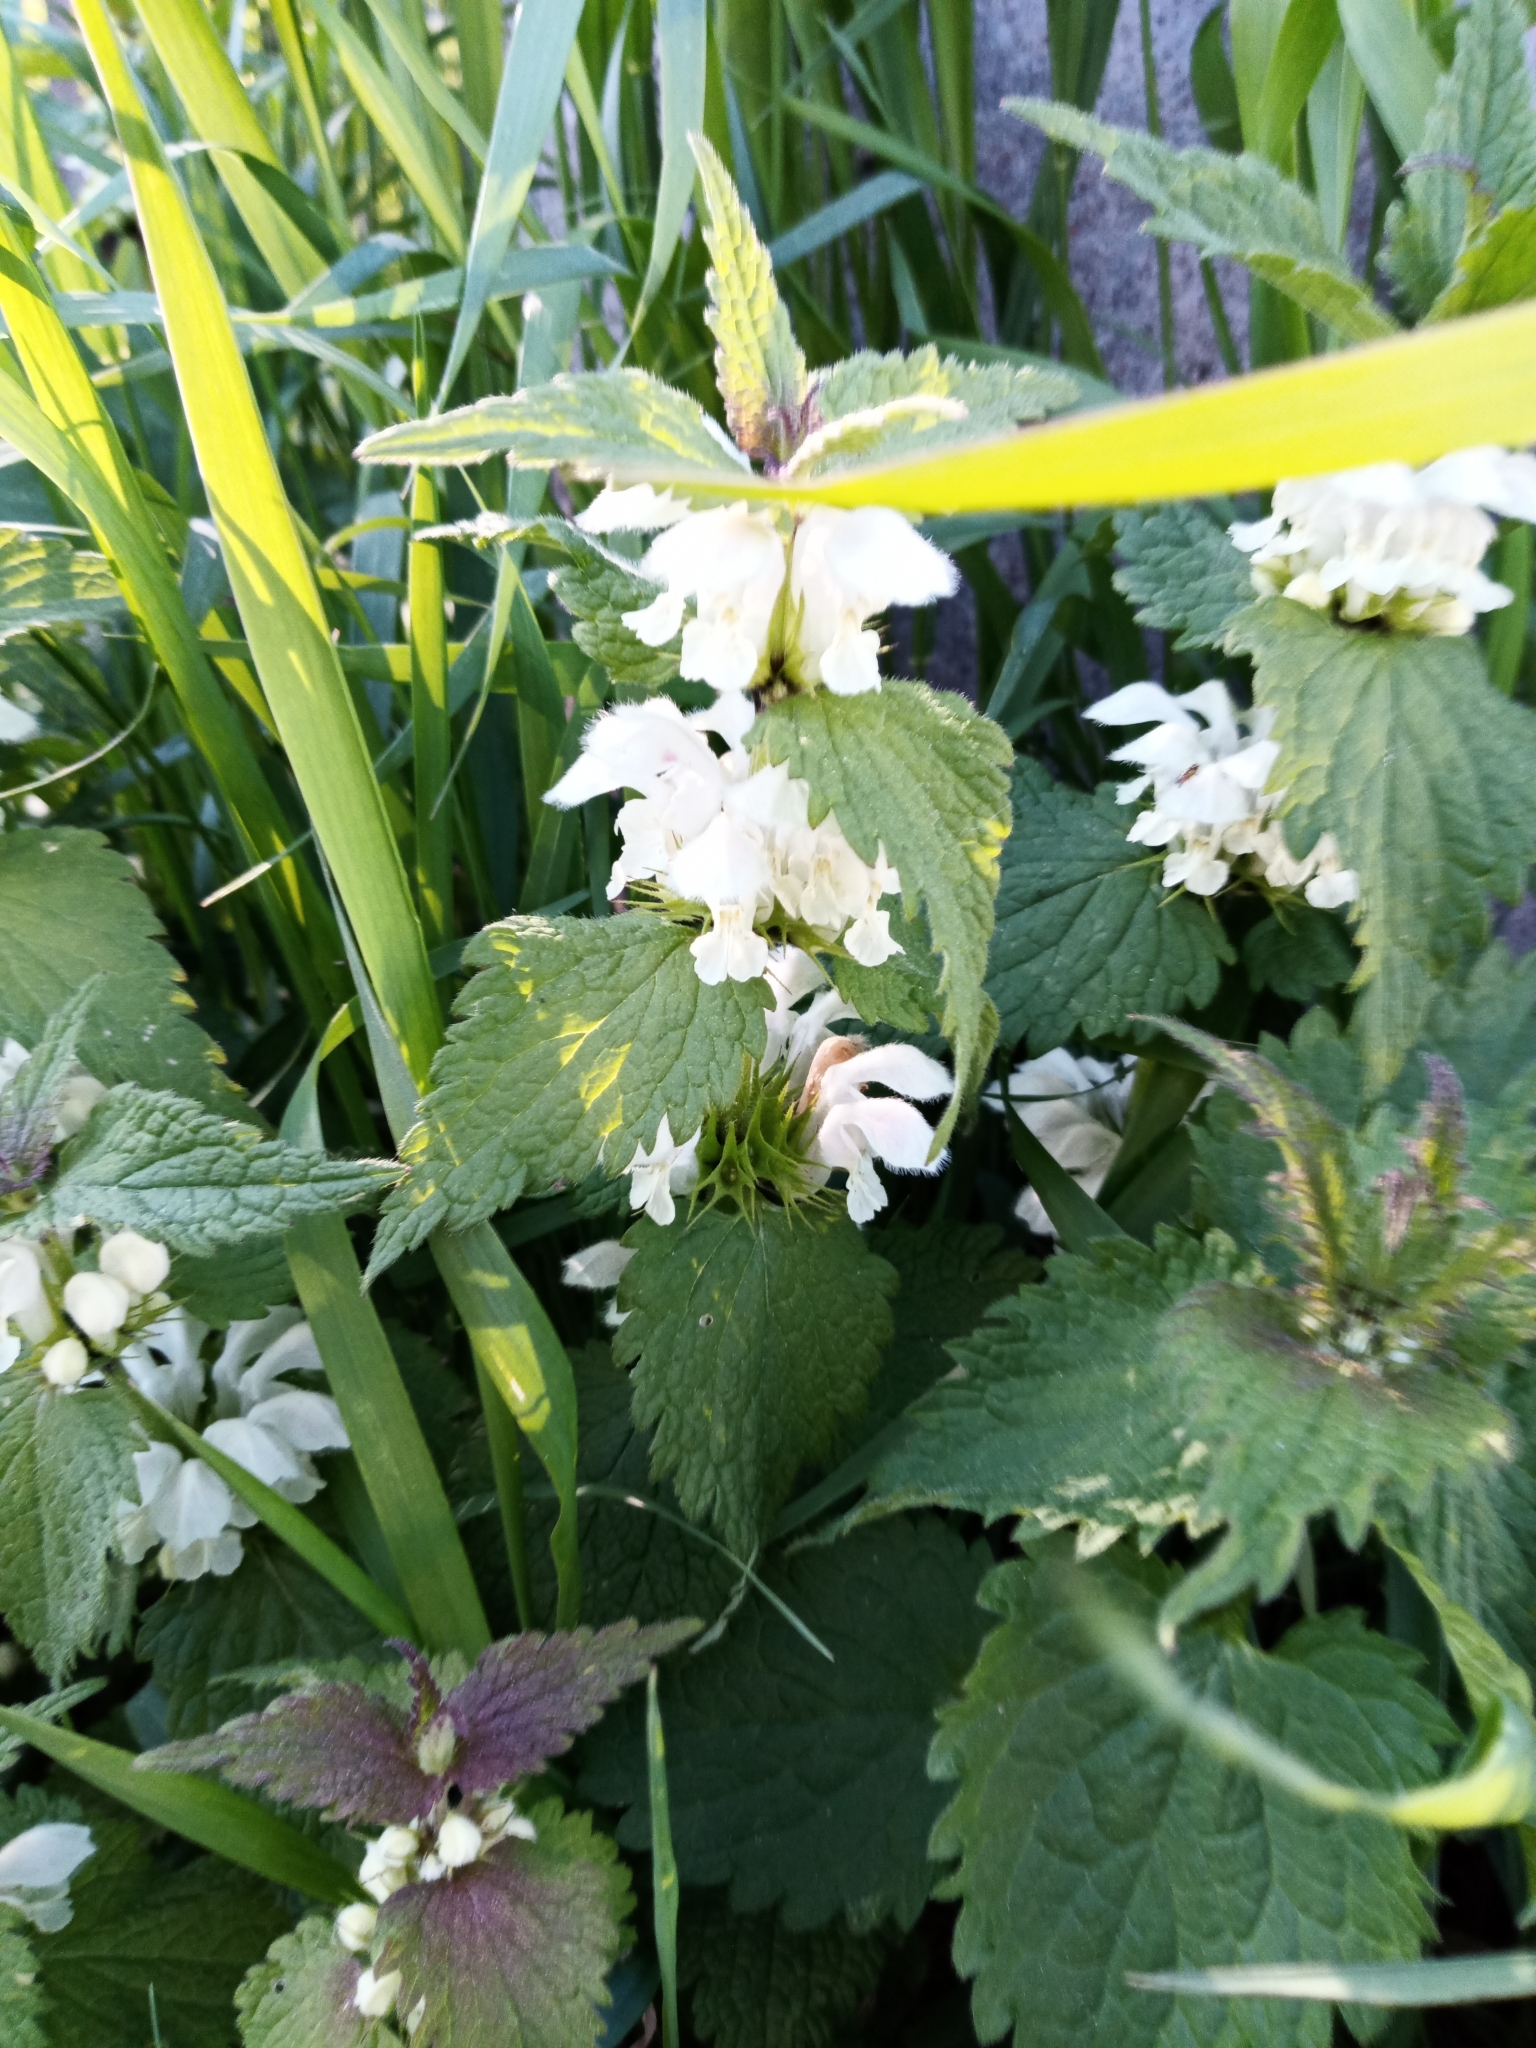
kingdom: Plantae
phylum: Tracheophyta
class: Magnoliopsida
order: Lamiales
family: Lamiaceae
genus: Lamium
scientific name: Lamium album
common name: White dead-nettle
